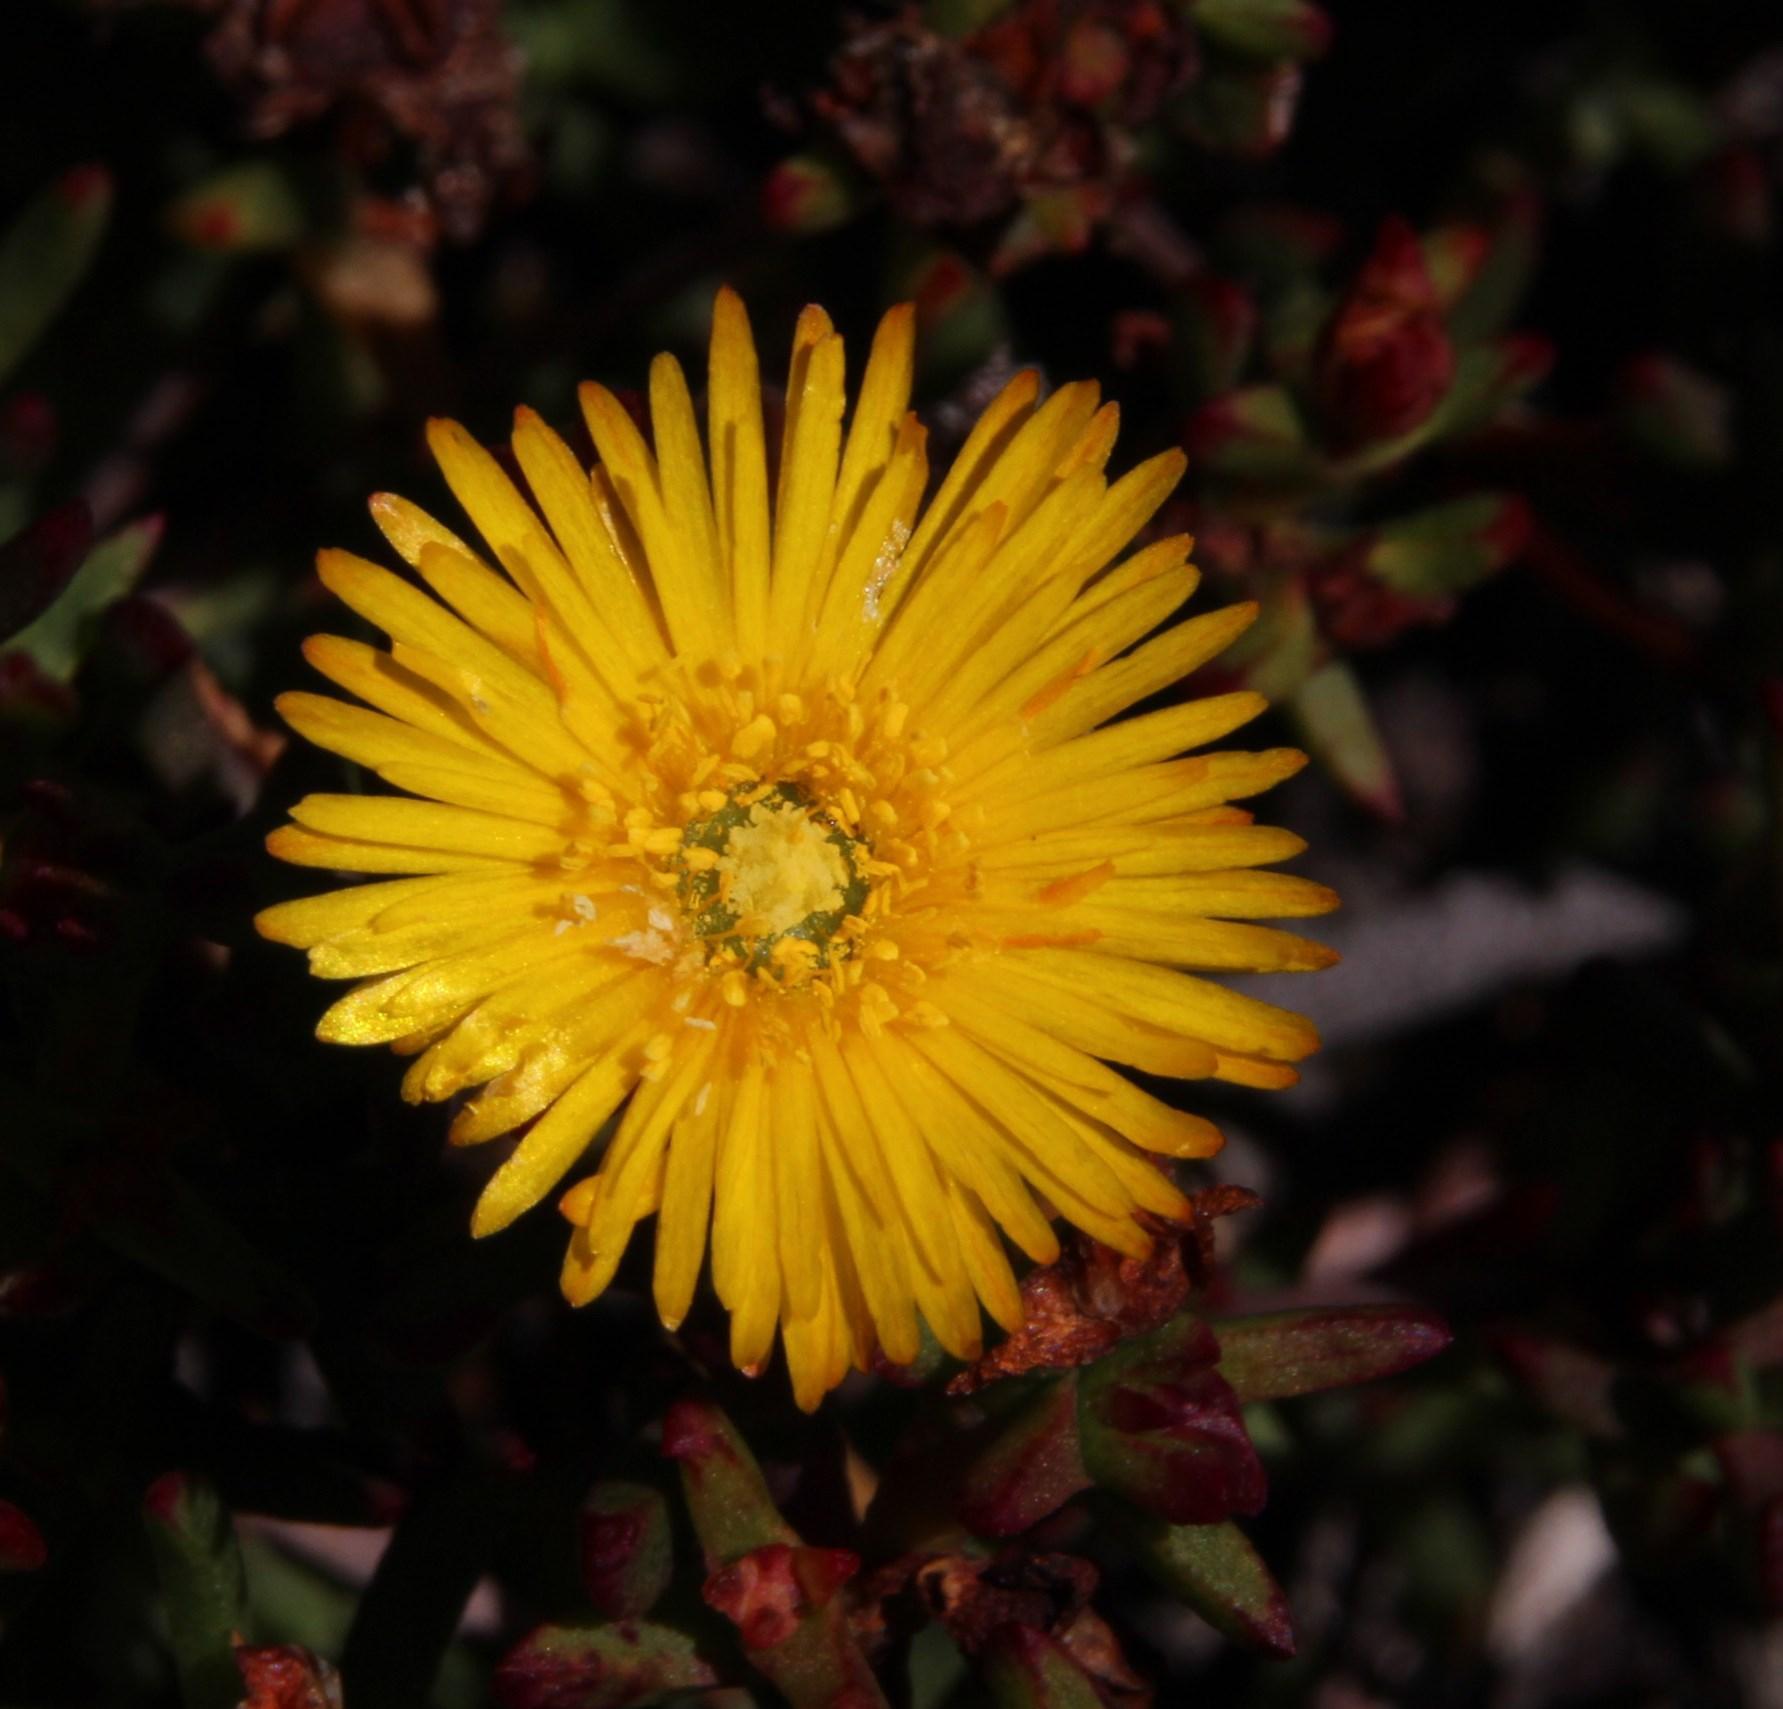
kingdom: Plantae
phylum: Tracheophyta
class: Magnoliopsida
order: Caryophyllales
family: Aizoaceae
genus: Lampranthus
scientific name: Lampranthus promontorii
